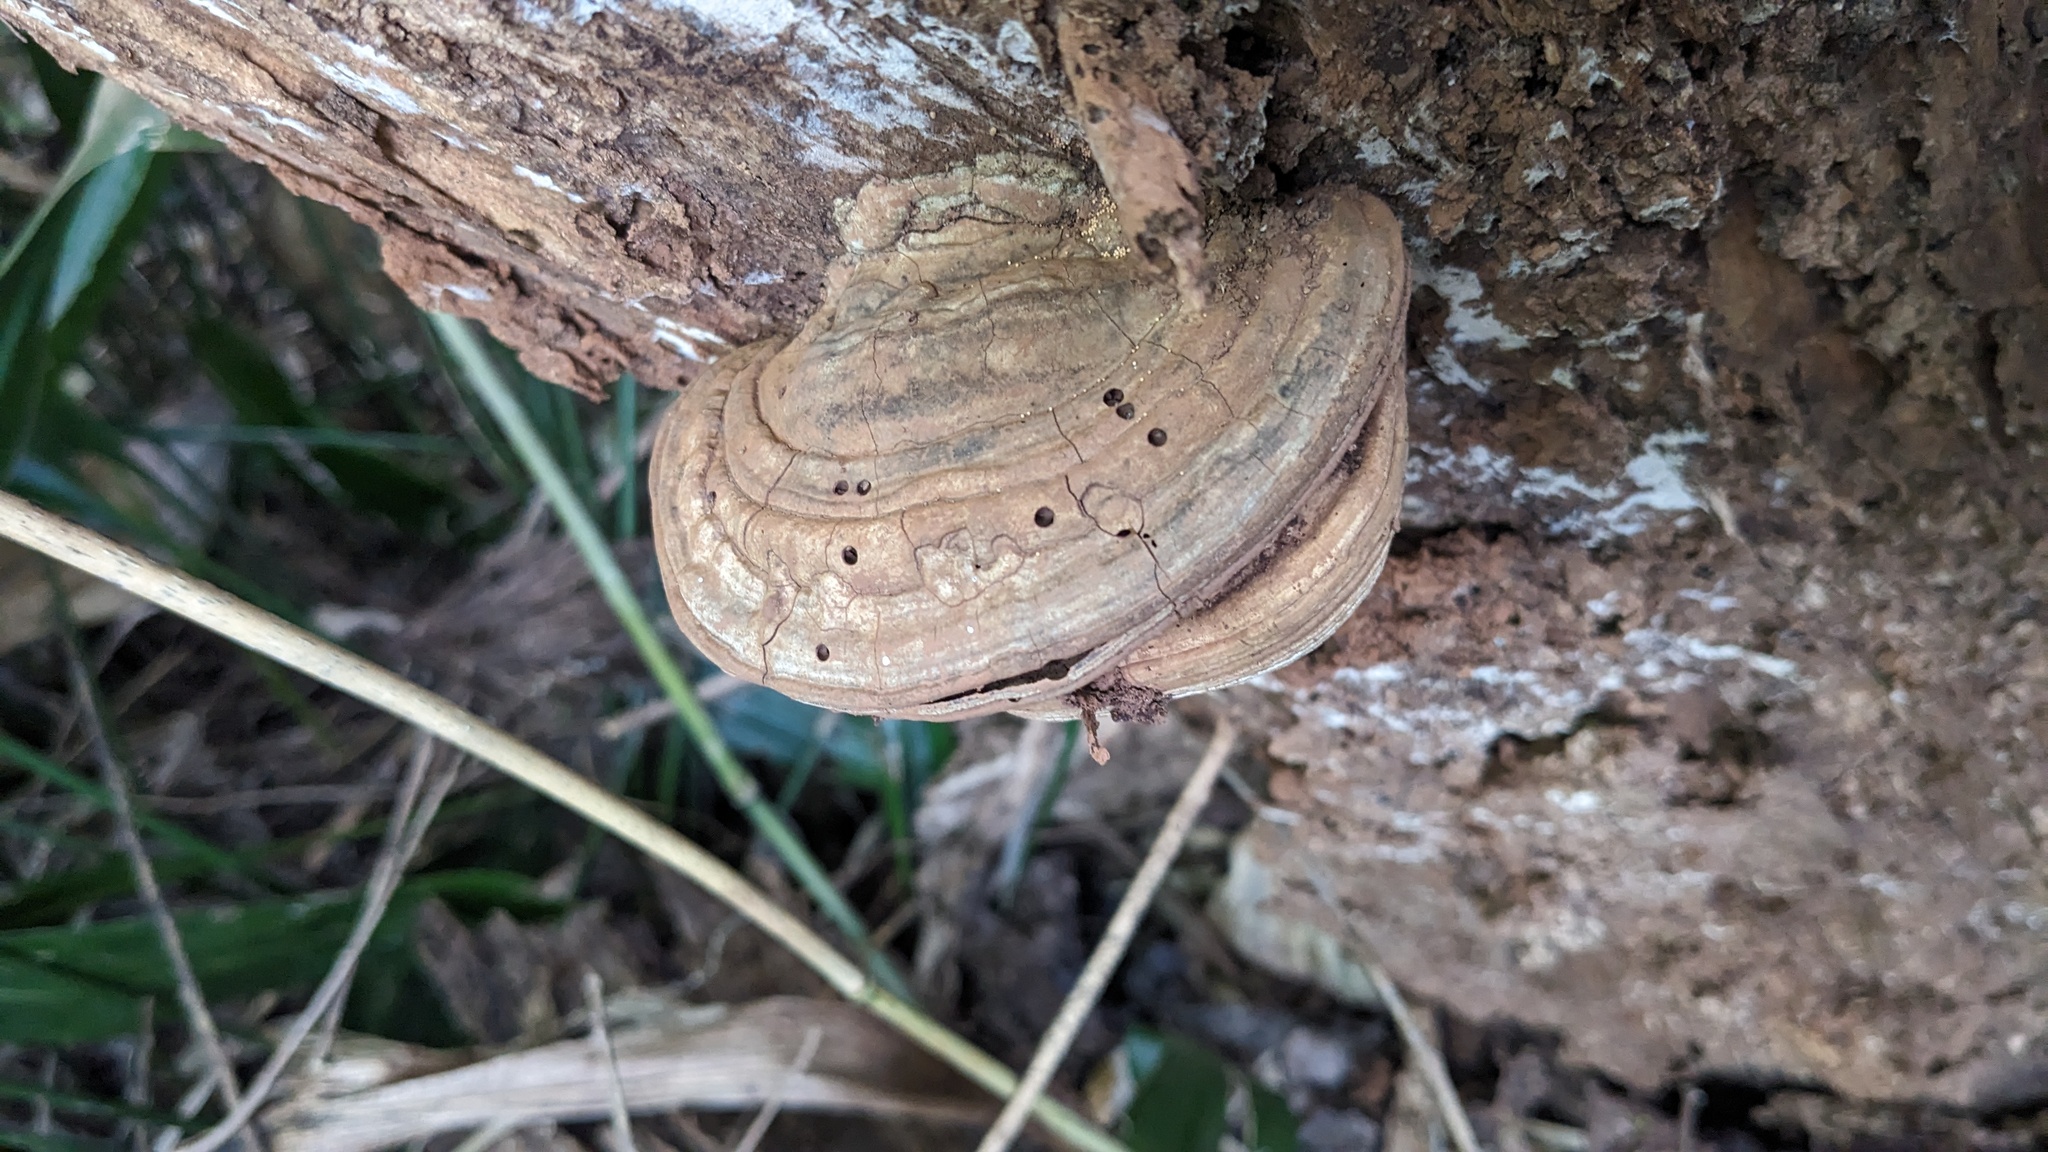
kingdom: Fungi
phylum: Basidiomycota
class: Agaricomycetes
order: Polyporales
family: Polyporaceae
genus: Ganoderma
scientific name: Ganoderma applanatum
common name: Artist's bracket
